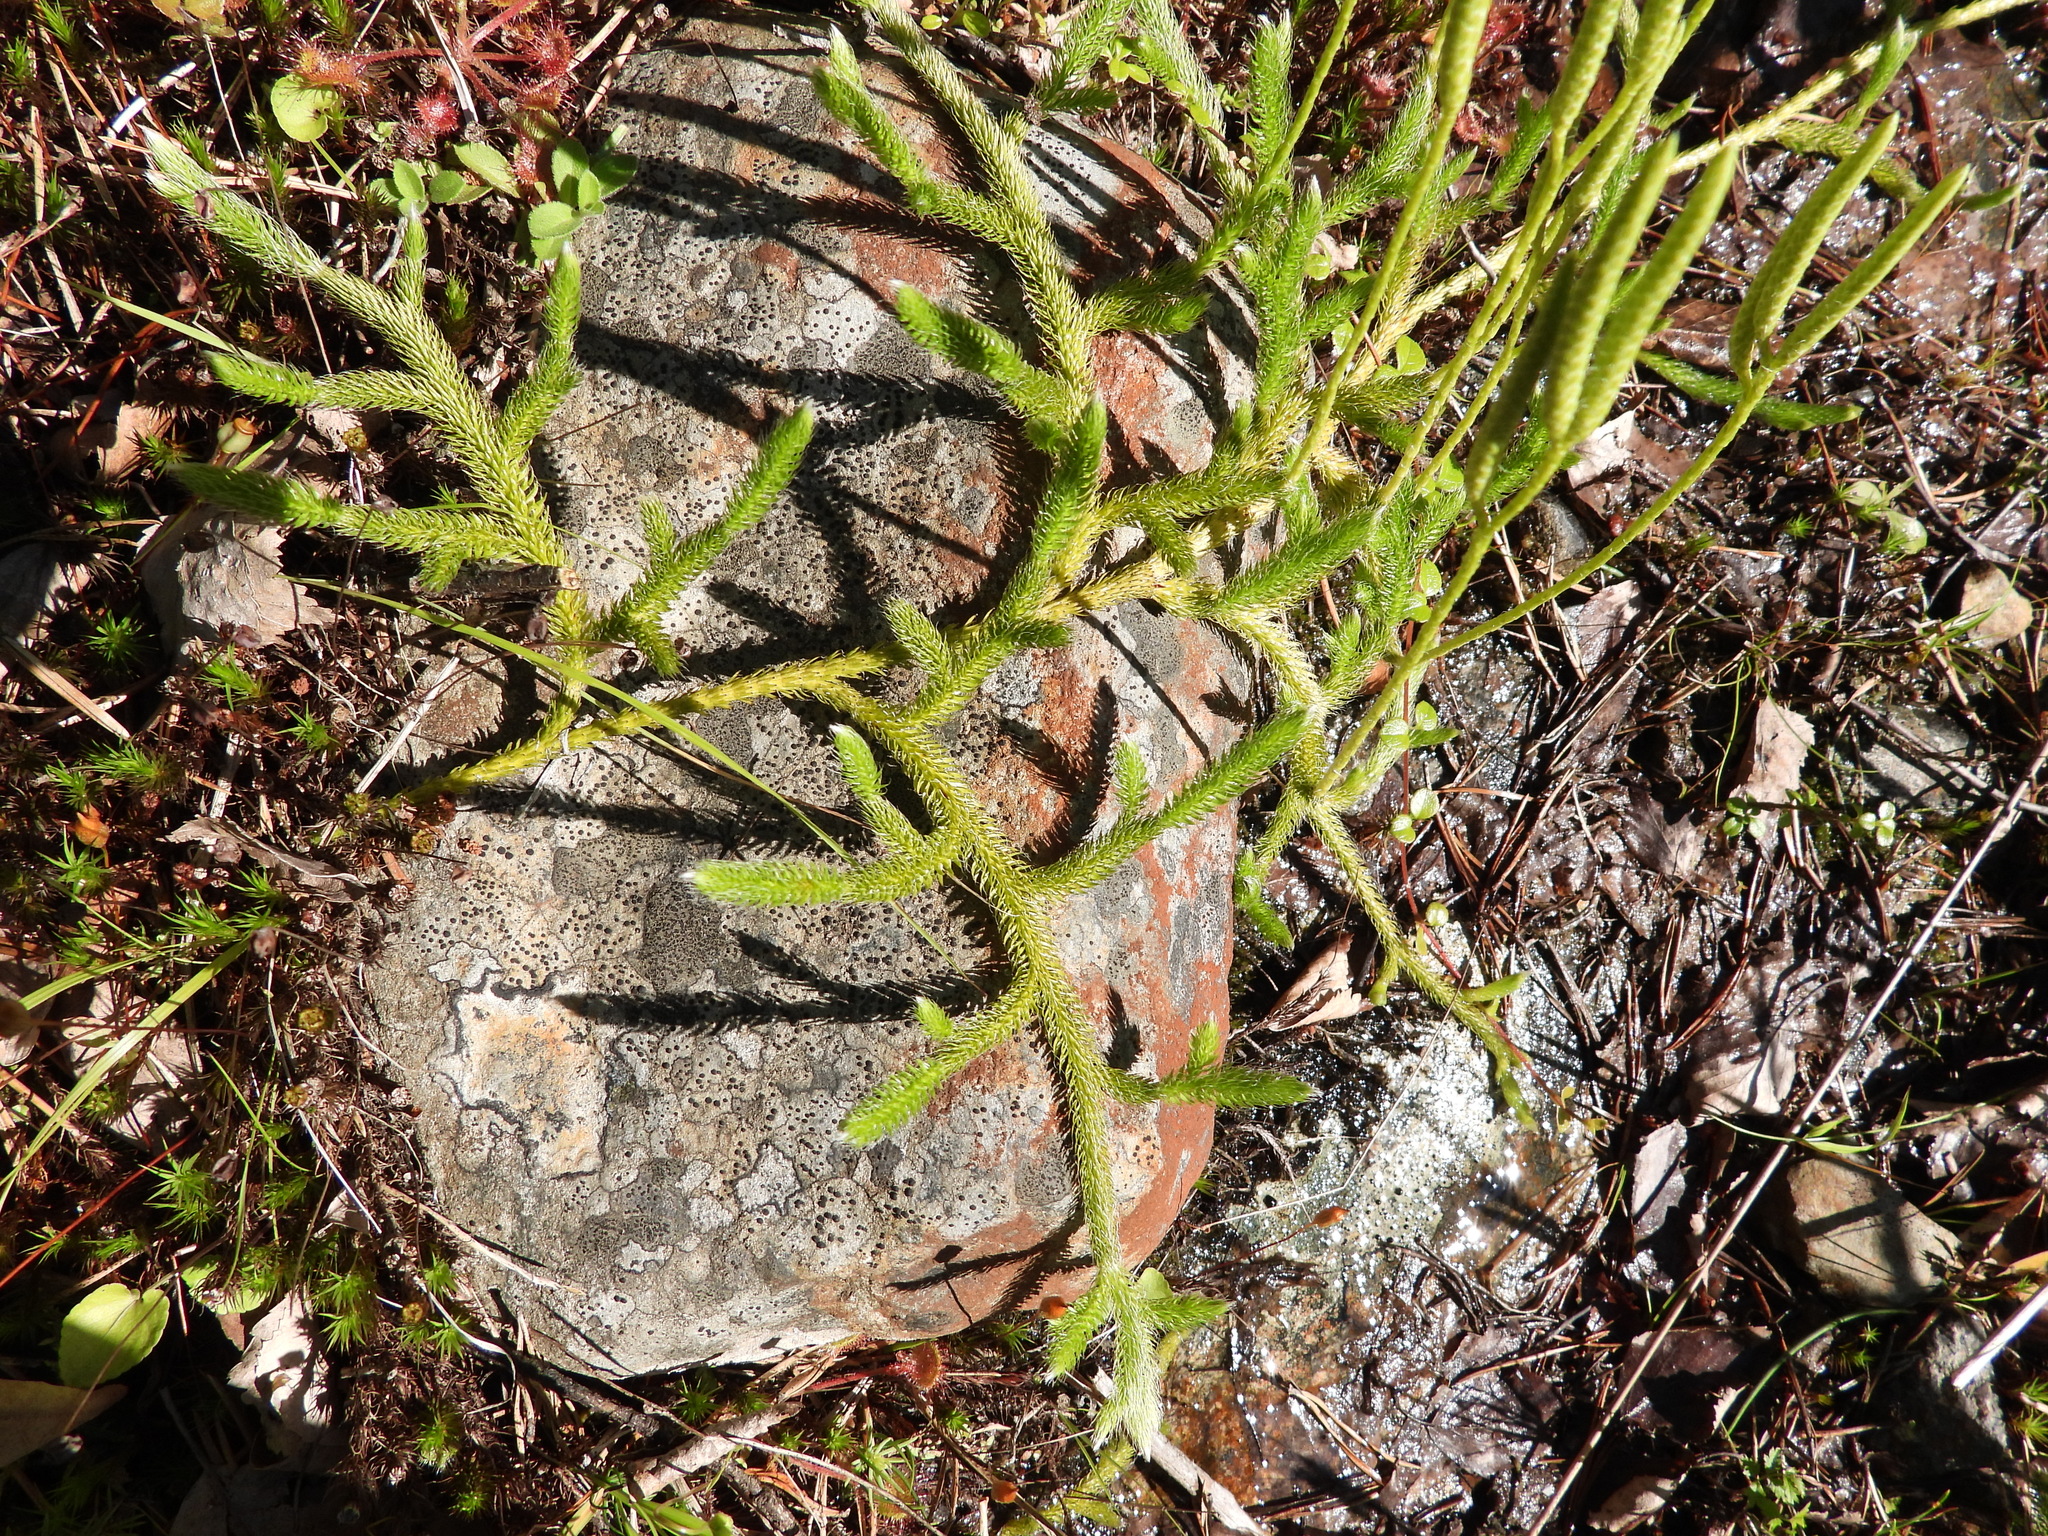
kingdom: Plantae
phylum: Tracheophyta
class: Lycopodiopsida
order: Lycopodiales
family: Lycopodiaceae
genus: Lycopodium
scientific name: Lycopodium clavatum
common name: Stag's-horn clubmoss
